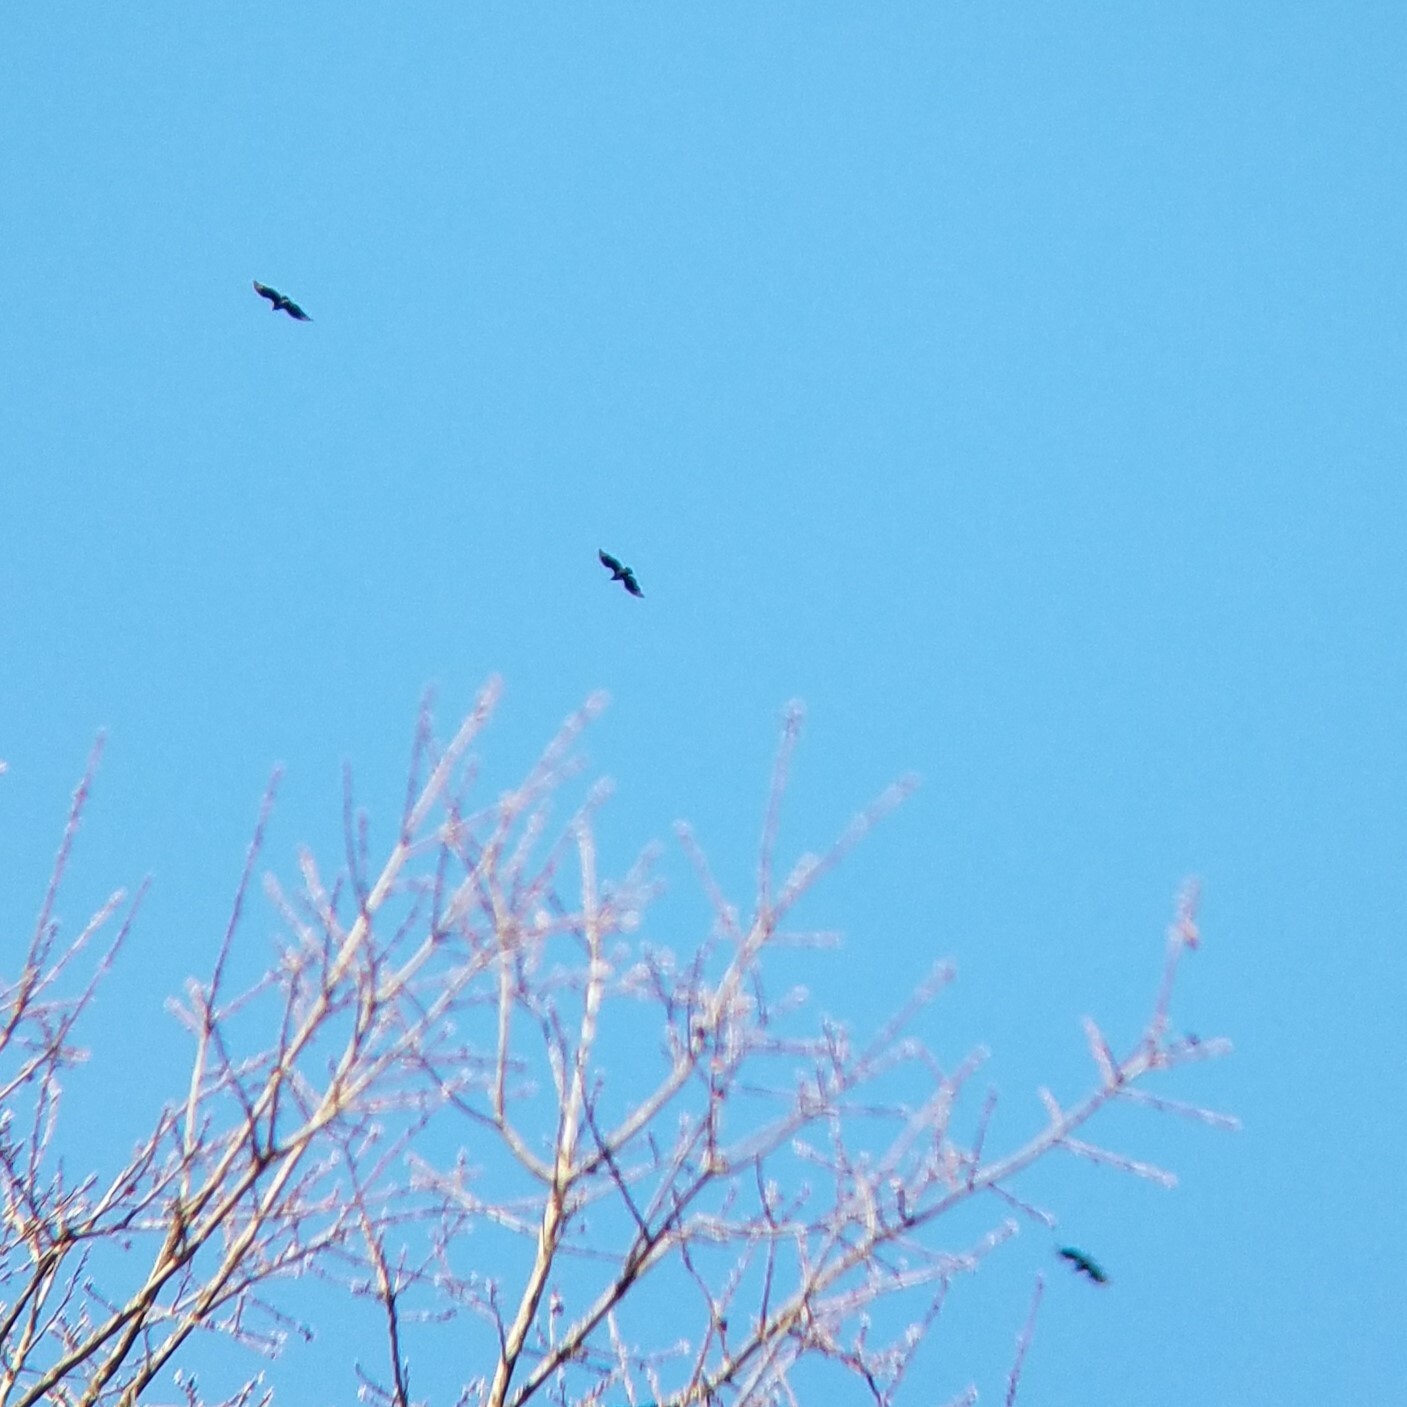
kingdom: Animalia
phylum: Chordata
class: Aves
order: Accipitriformes
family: Cathartidae
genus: Coragyps
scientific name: Coragyps atratus
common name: Black vulture
